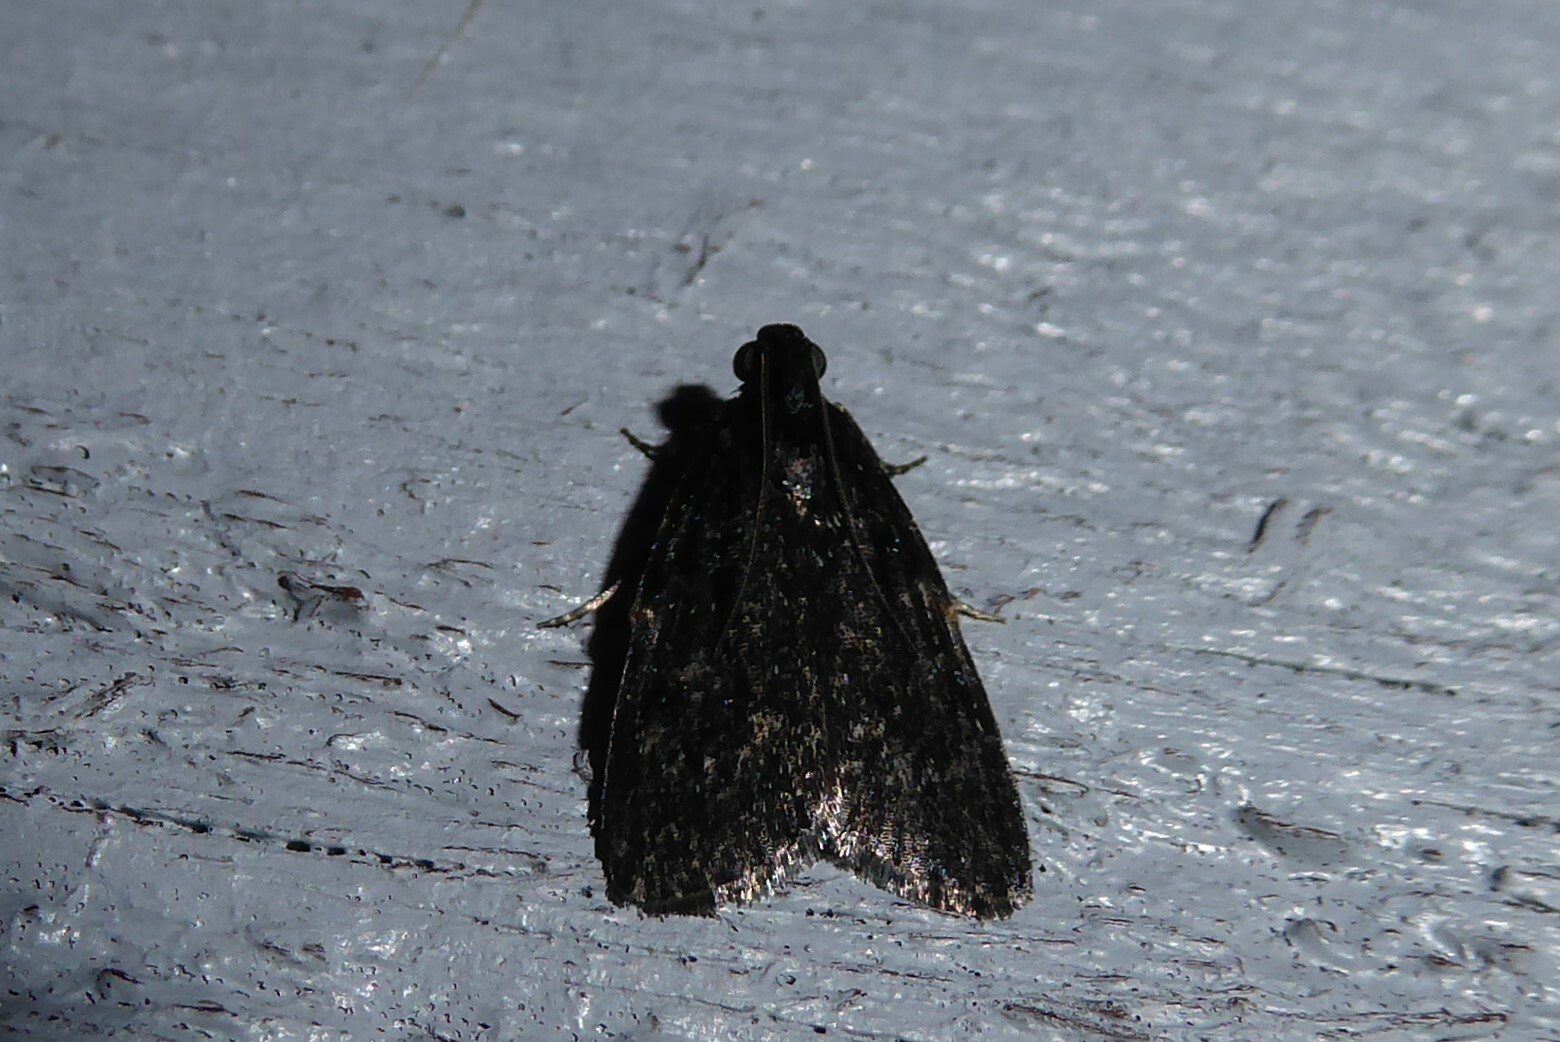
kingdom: Animalia
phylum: Arthropoda
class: Insecta
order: Lepidoptera
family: Pyralidae
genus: Stericta
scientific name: Stericta carbonalis
